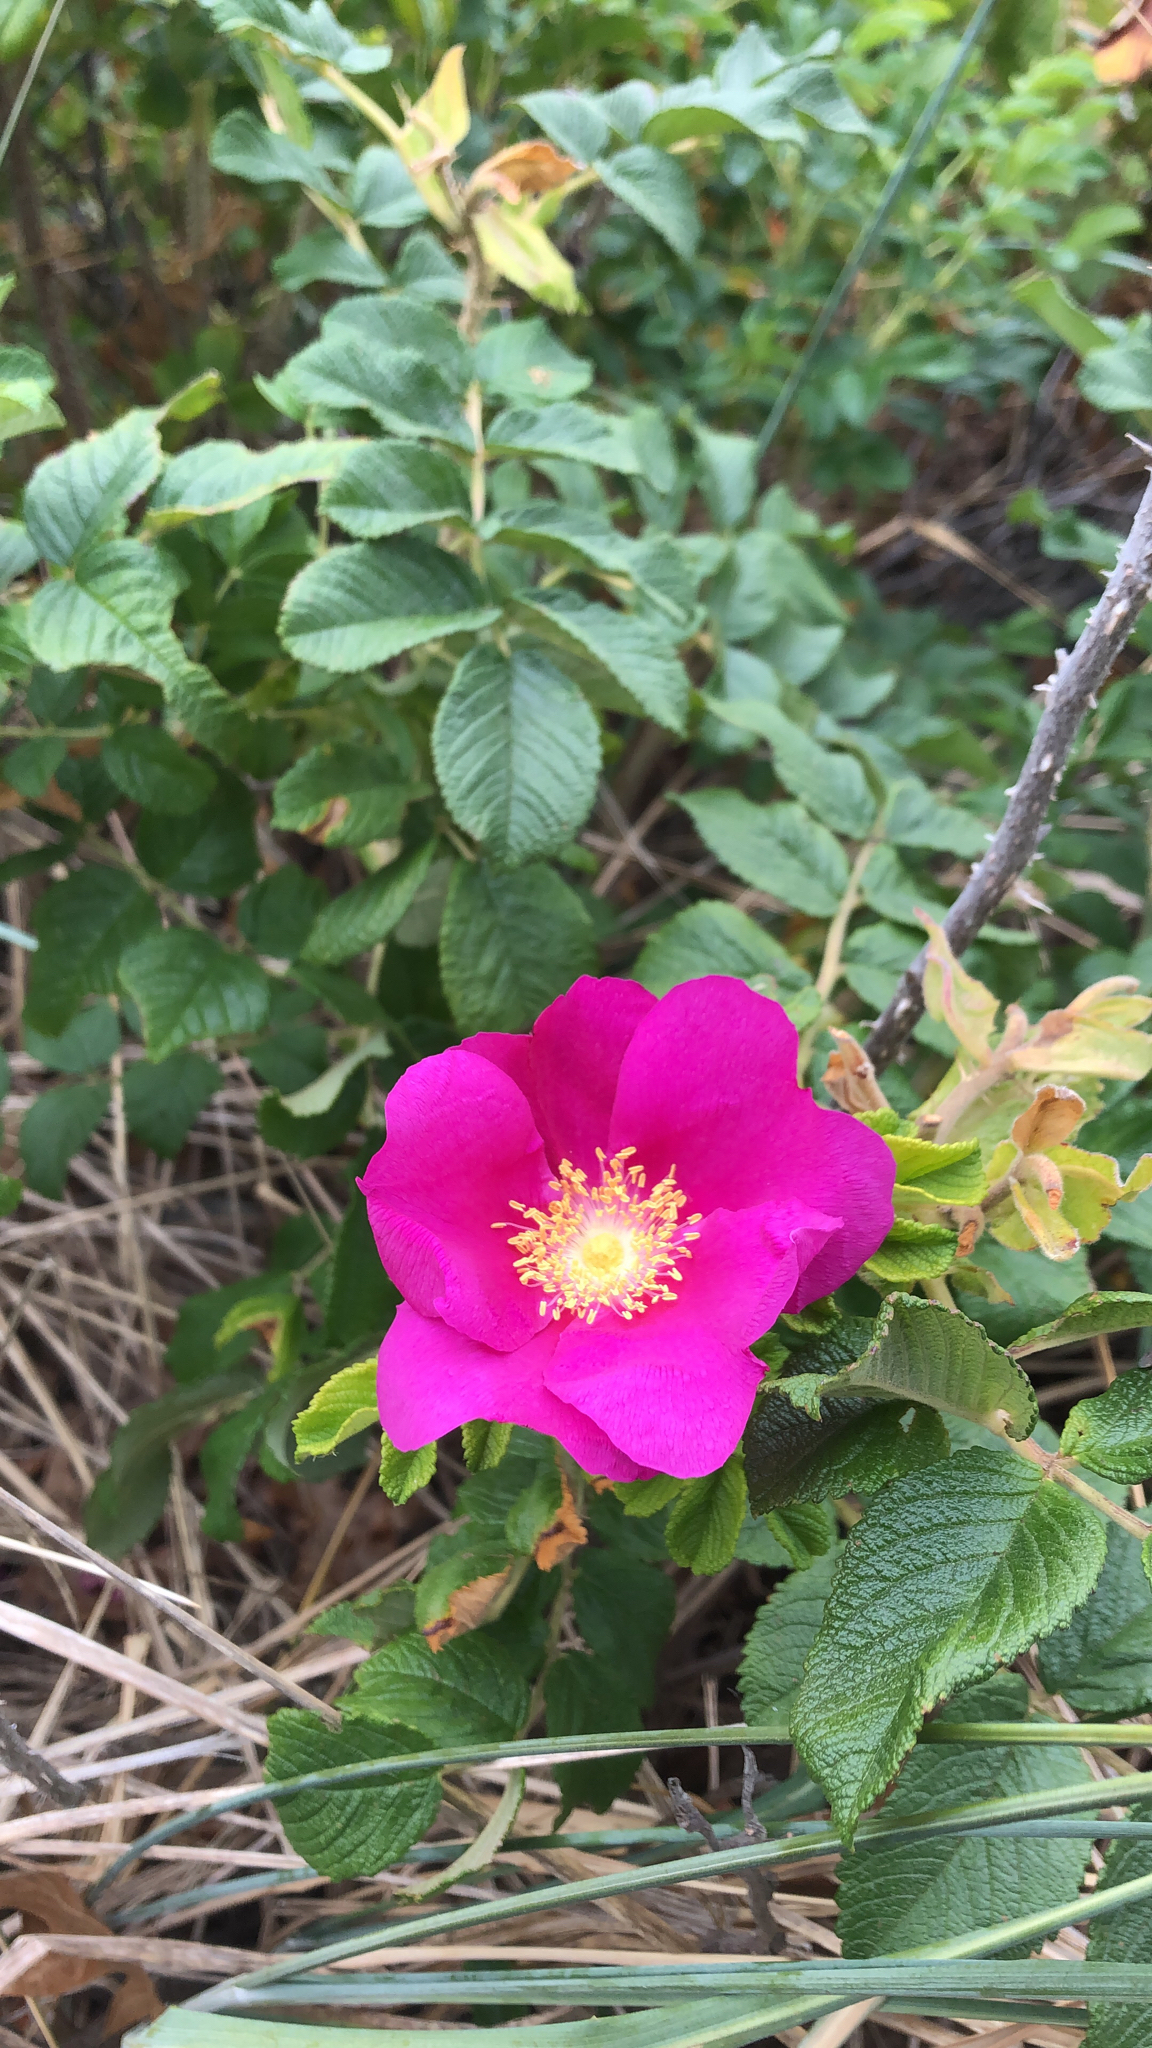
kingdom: Plantae
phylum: Tracheophyta
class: Magnoliopsida
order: Rosales
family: Rosaceae
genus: Rosa
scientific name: Rosa rugosa
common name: Japanese rose
